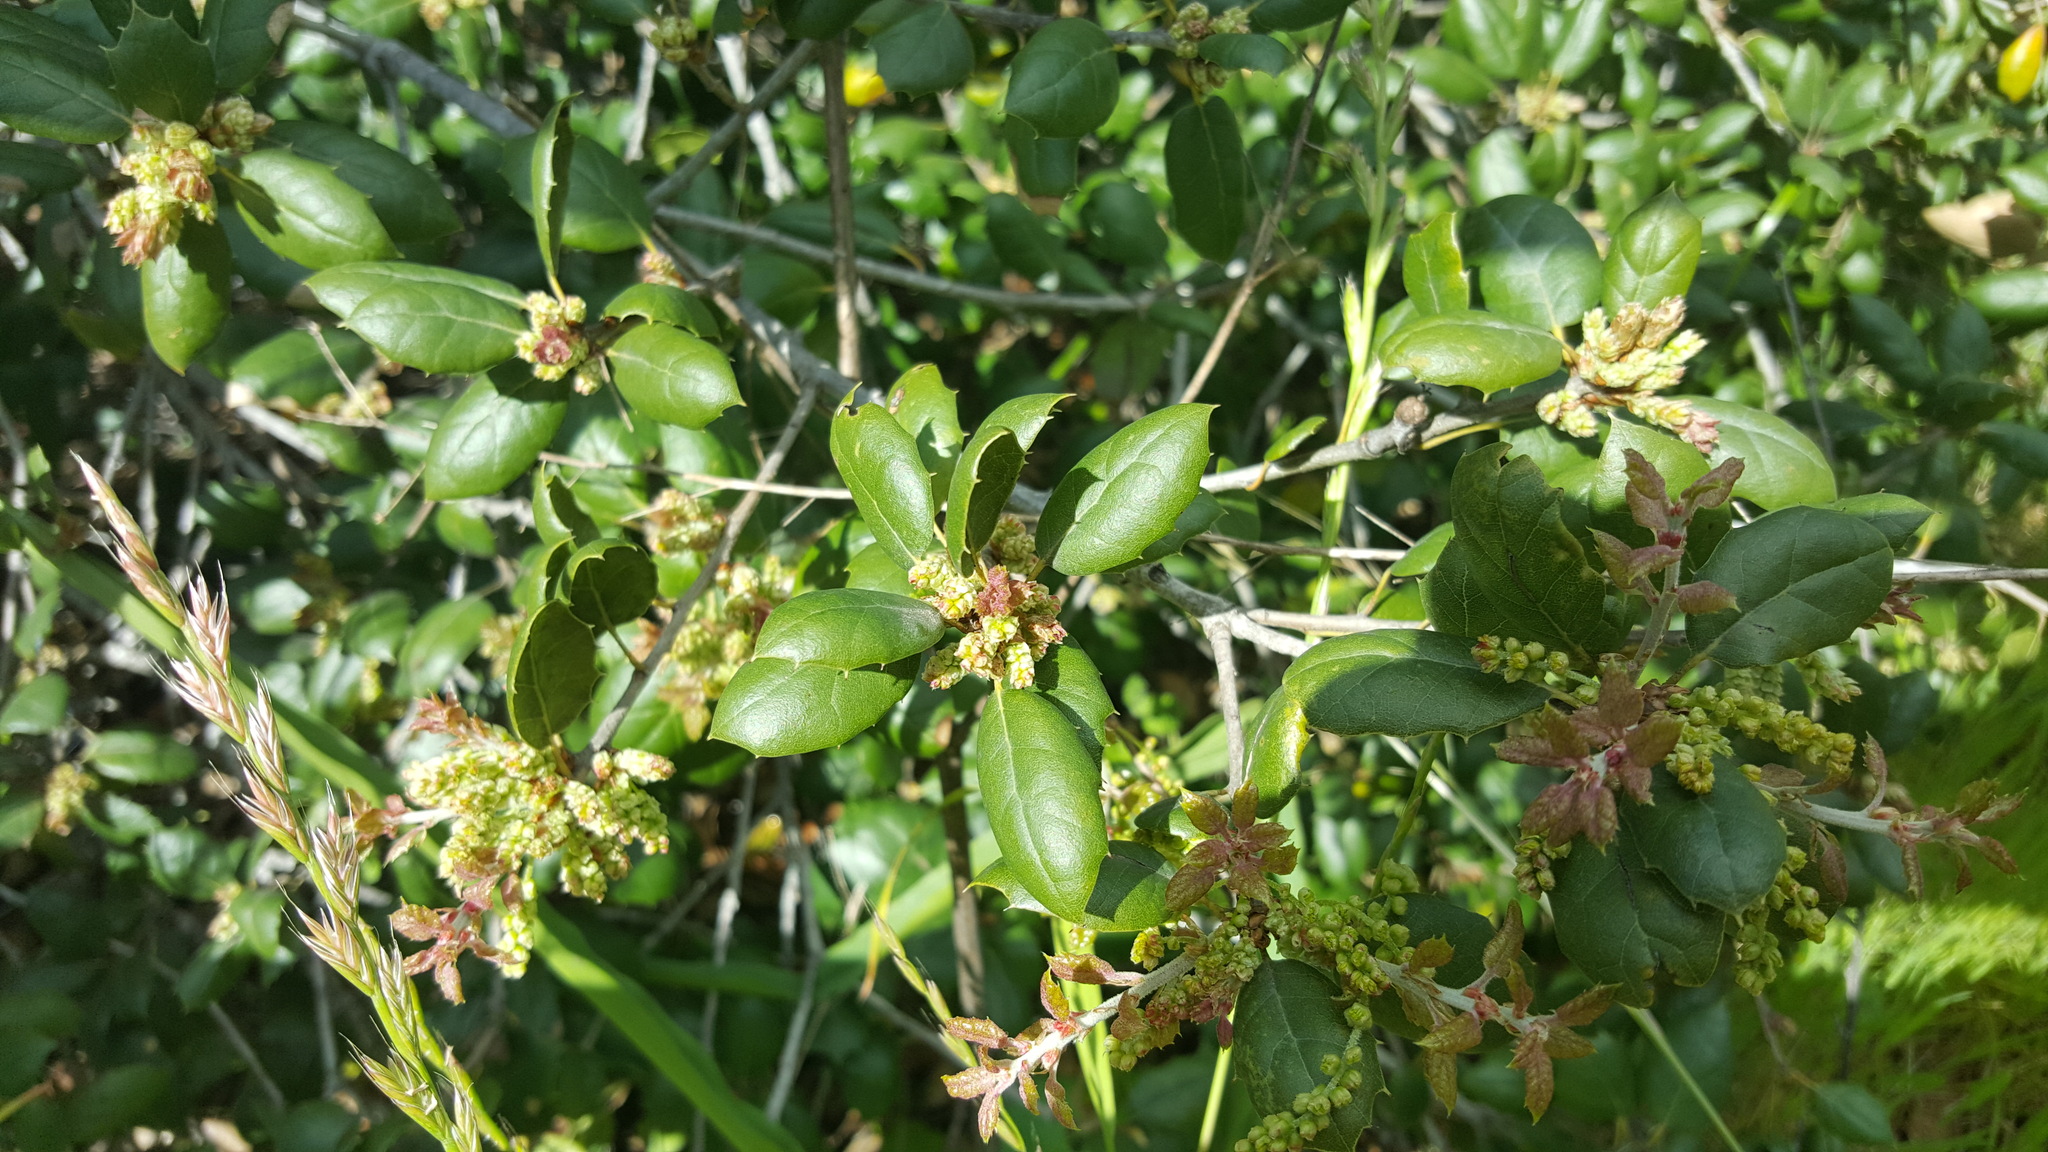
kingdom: Plantae
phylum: Tracheophyta
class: Magnoliopsida
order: Fagales
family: Fagaceae
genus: Quercus
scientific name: Quercus agrifolia
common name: California live oak
